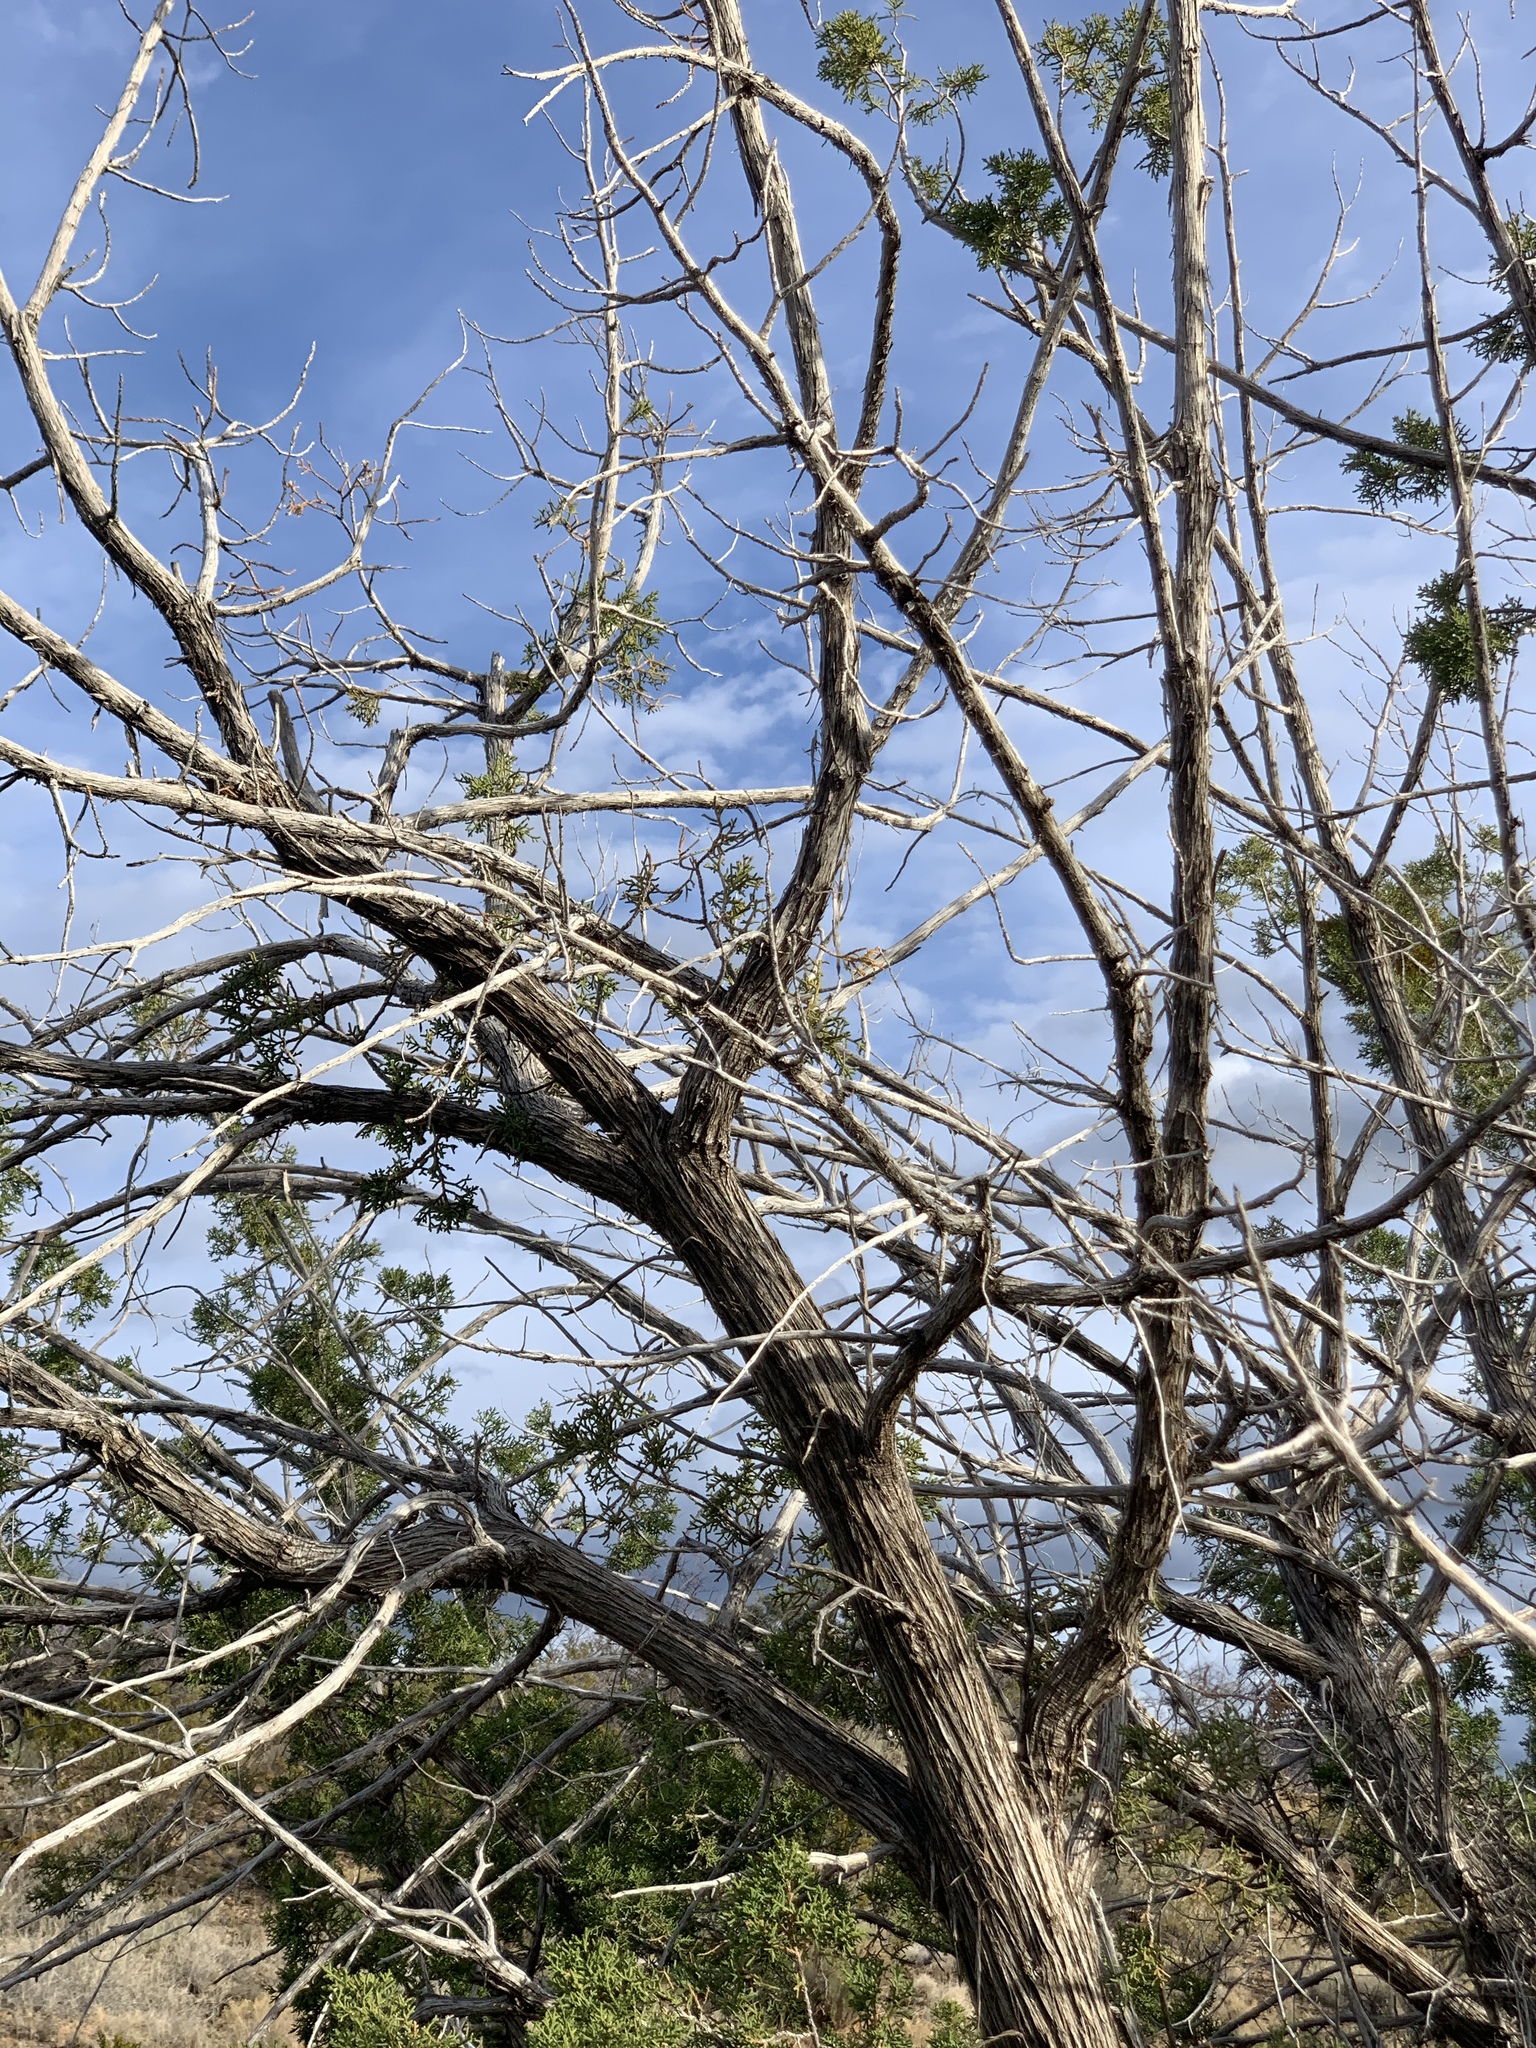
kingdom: Plantae
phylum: Tracheophyta
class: Pinopsida
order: Pinales
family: Cupressaceae
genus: Juniperus
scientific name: Juniperus monosperma
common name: One-seed juniper
